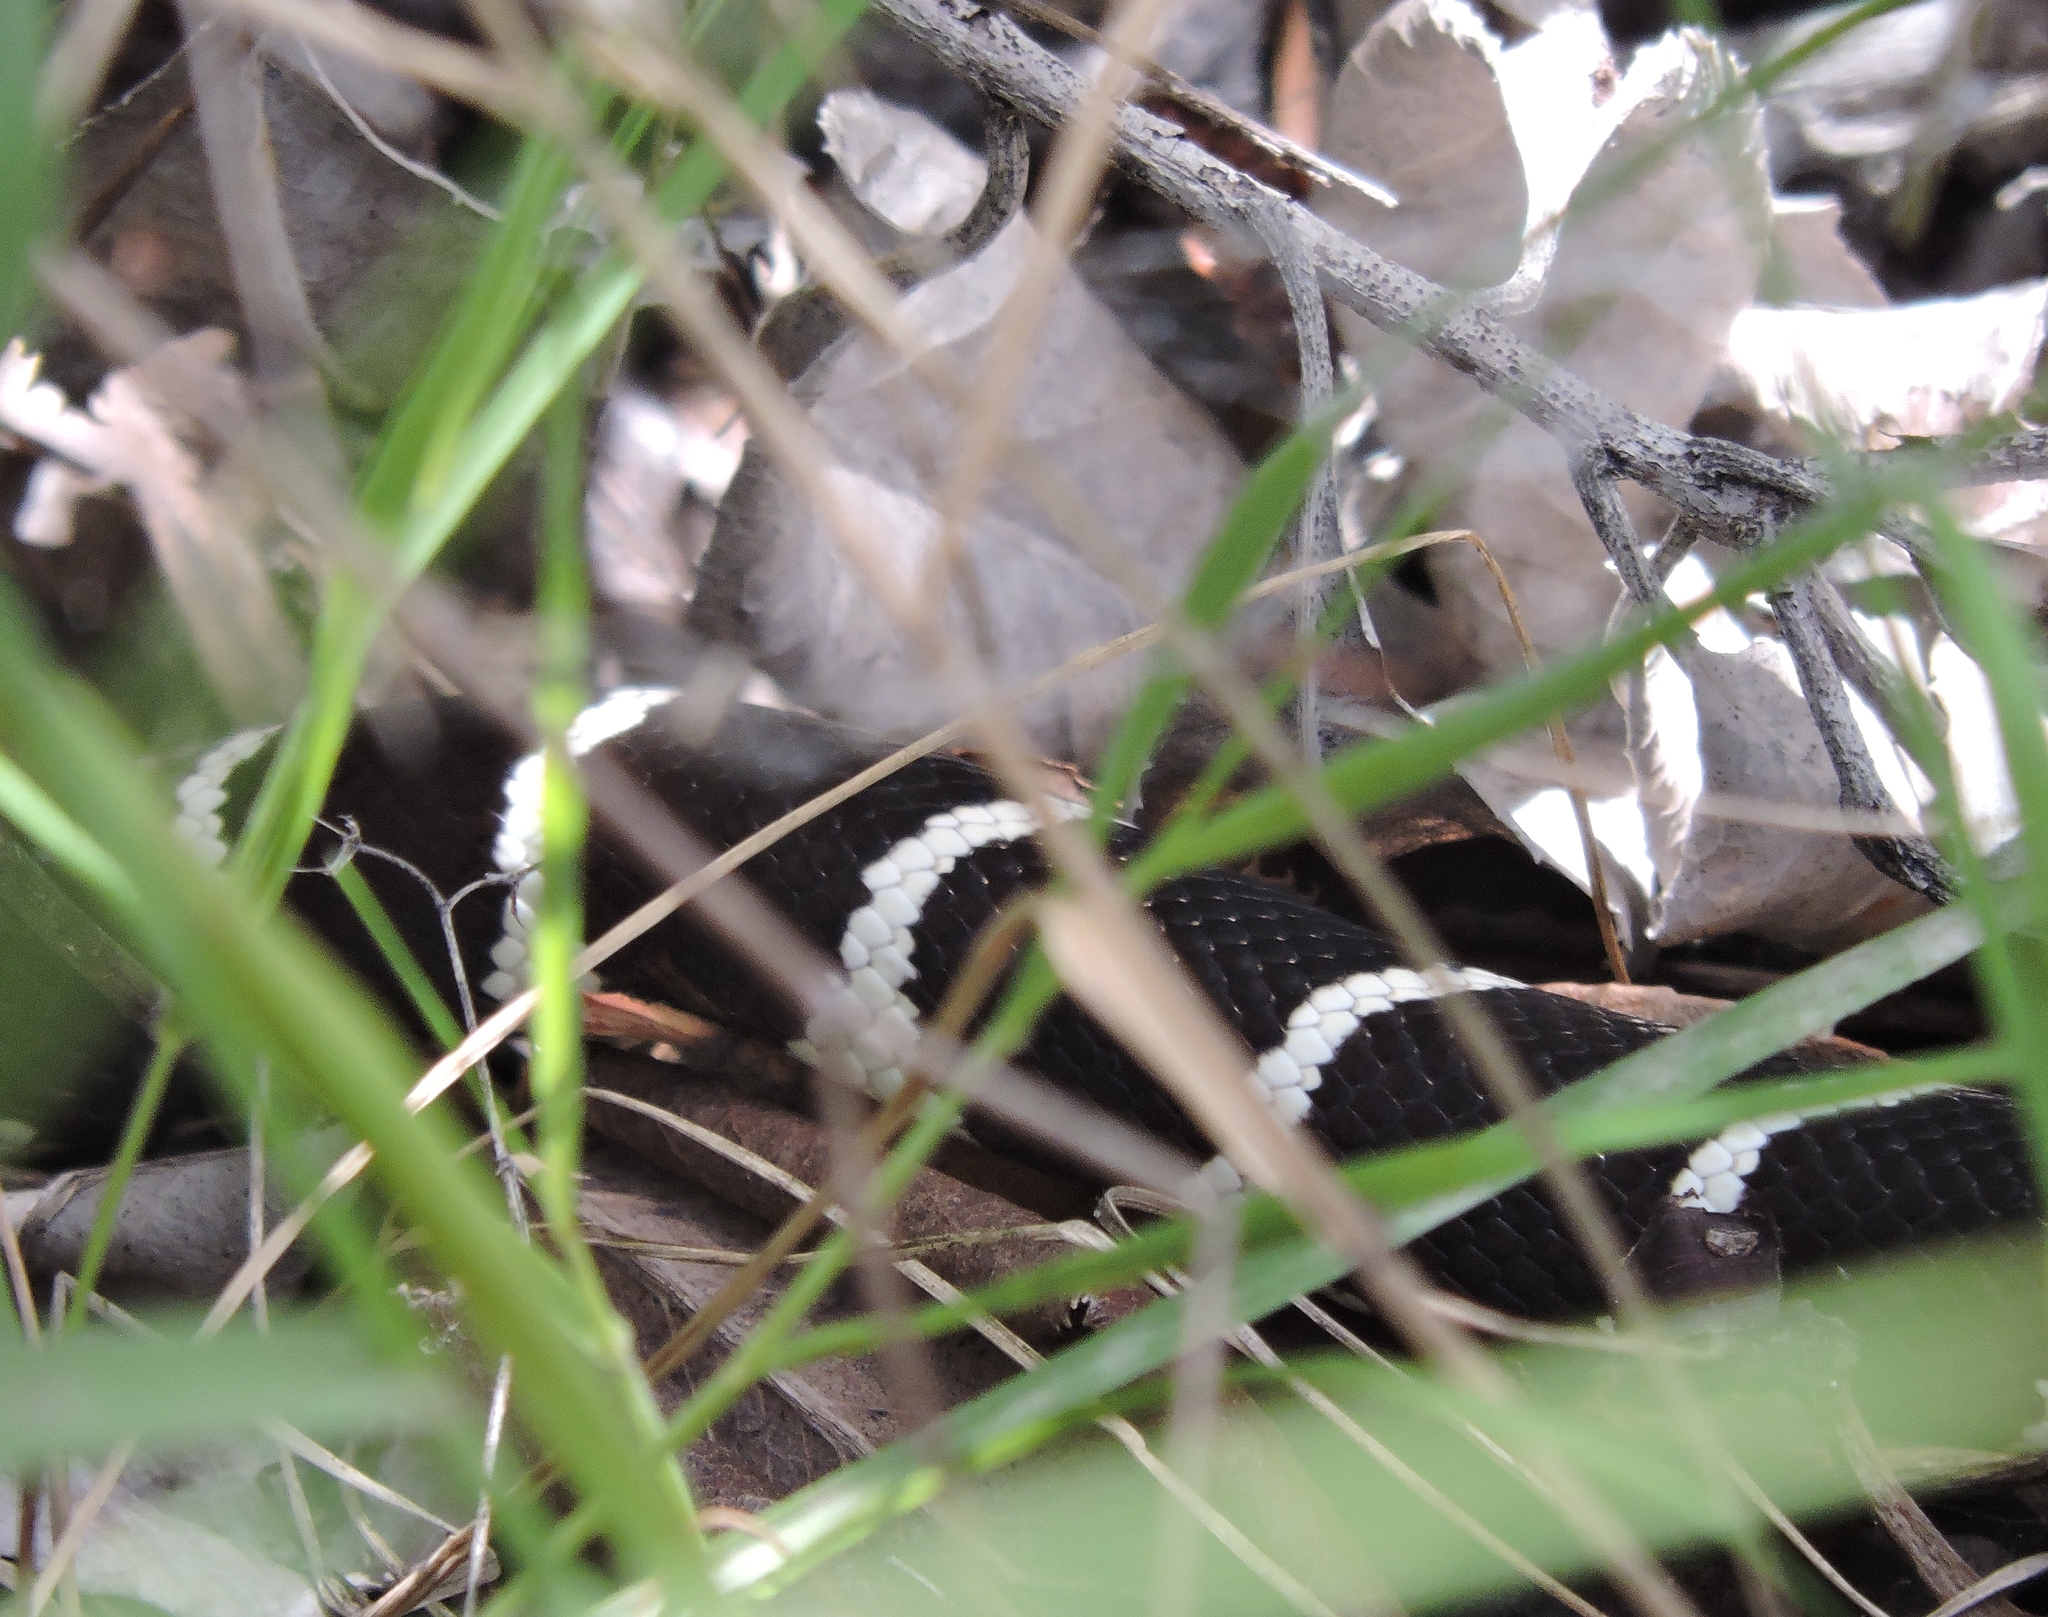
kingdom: Animalia
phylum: Chordata
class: Squamata
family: Colubridae
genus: Lampropeltis
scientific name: Lampropeltis californiae
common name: California kingsnake
